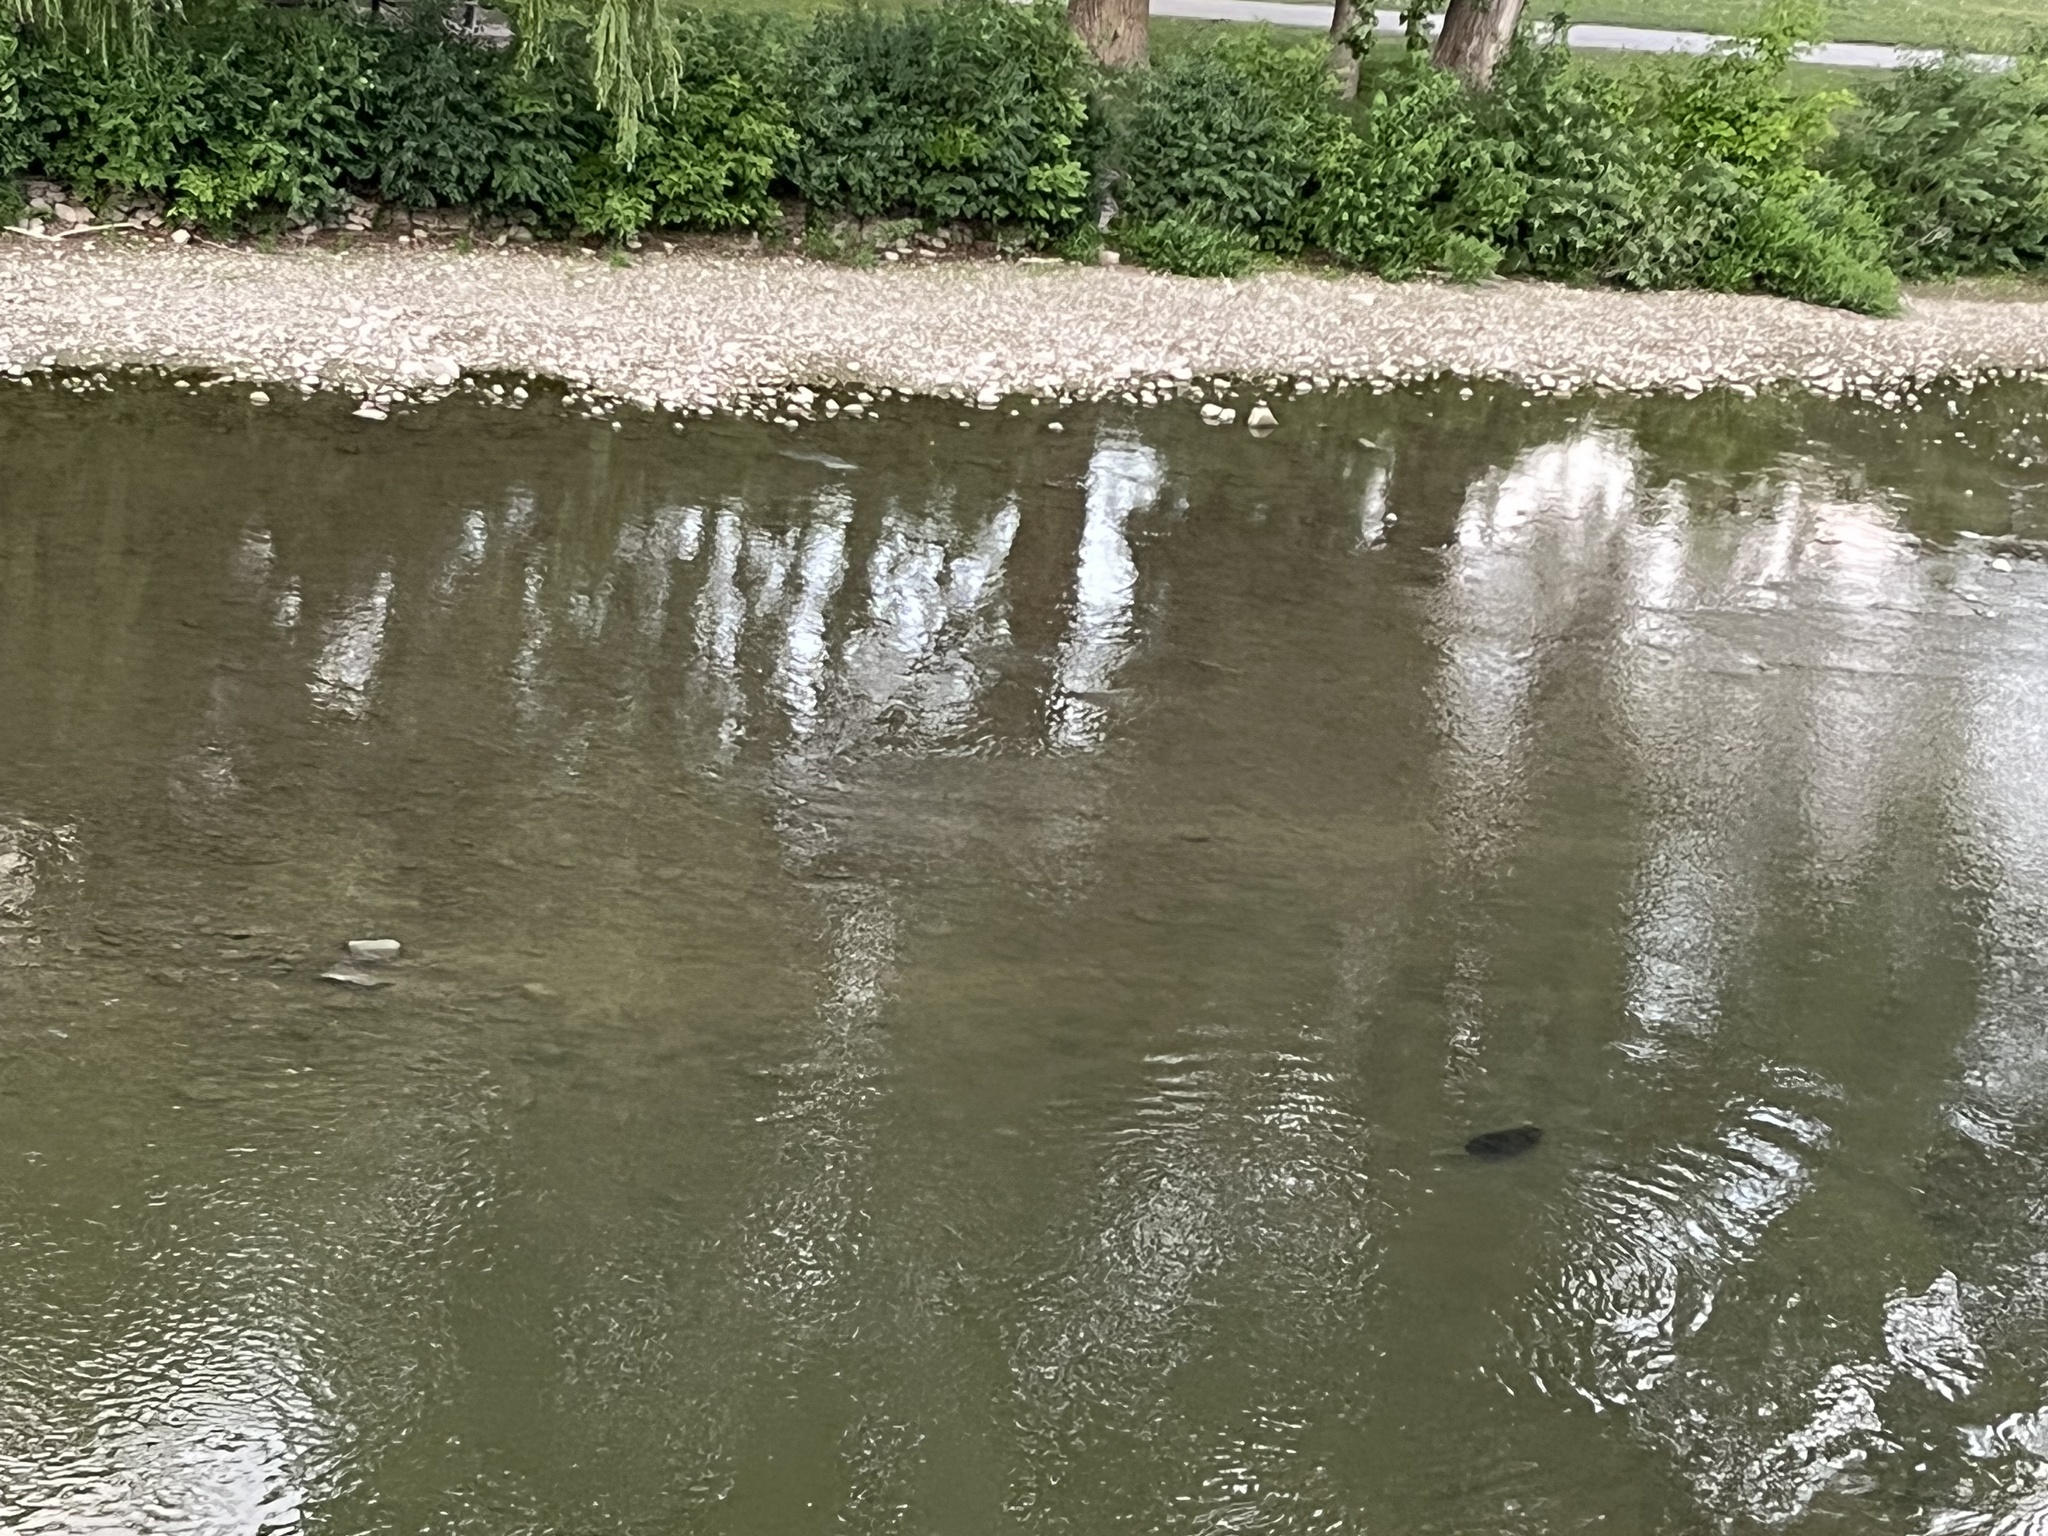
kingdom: Animalia
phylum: Chordata
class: Mammalia
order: Rodentia
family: Castoridae
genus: Castor
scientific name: Castor canadensis
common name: American beaver
